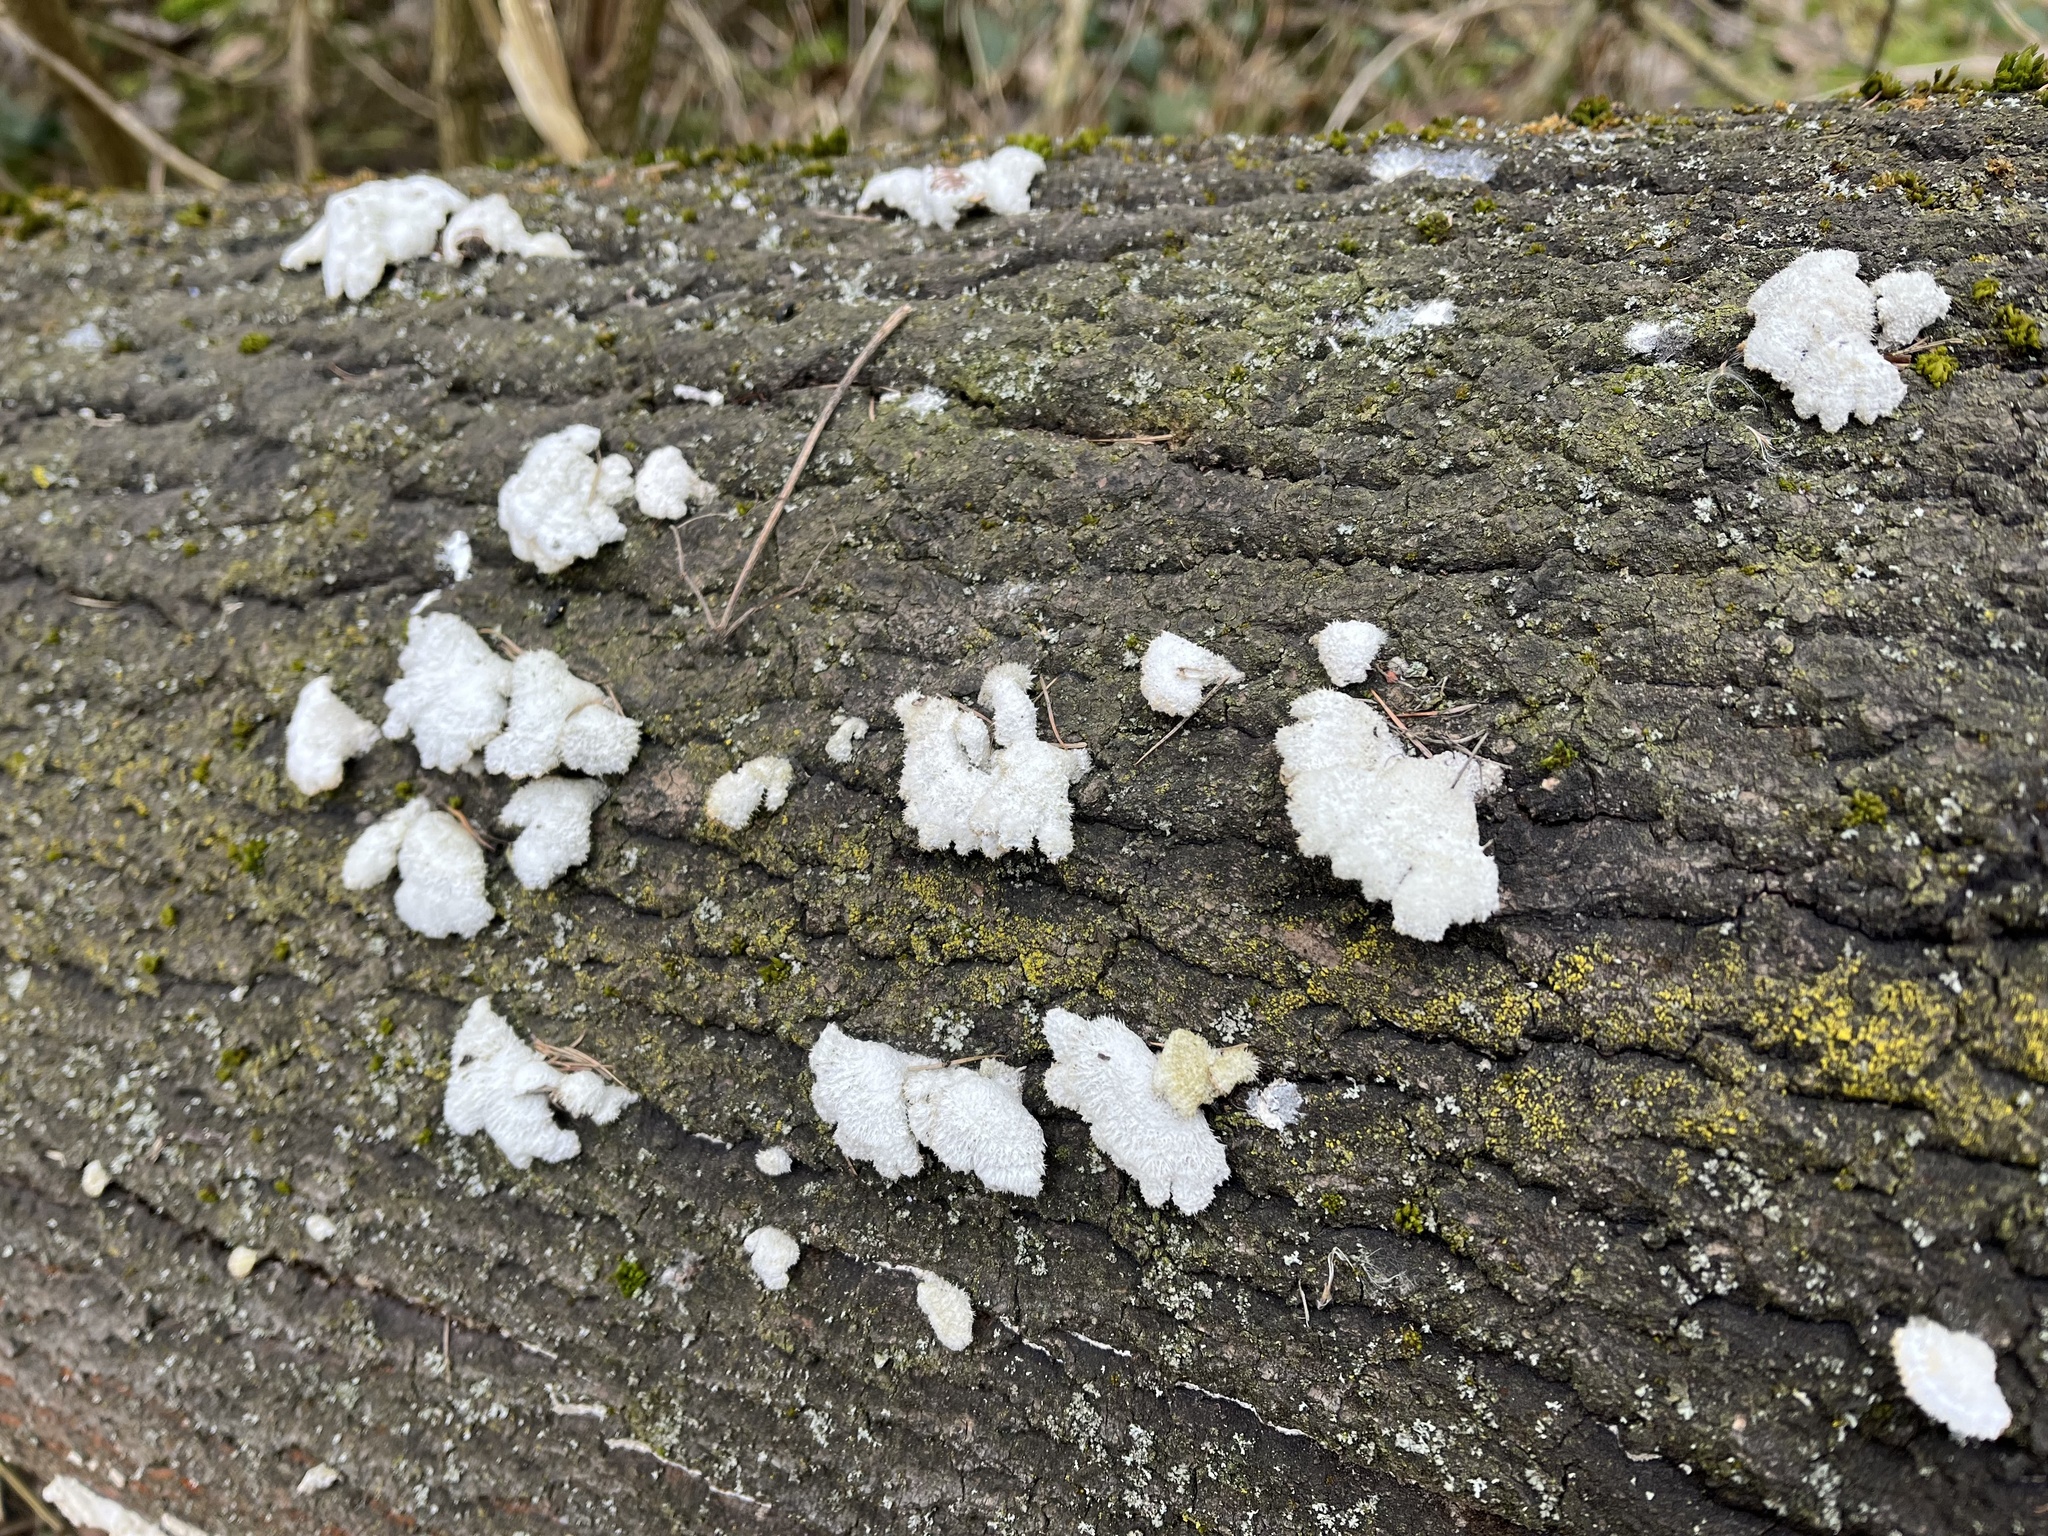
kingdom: Fungi
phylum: Basidiomycota
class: Agaricomycetes
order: Agaricales
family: Schizophyllaceae
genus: Schizophyllum
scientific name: Schizophyllum commune
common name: Common porecrust
